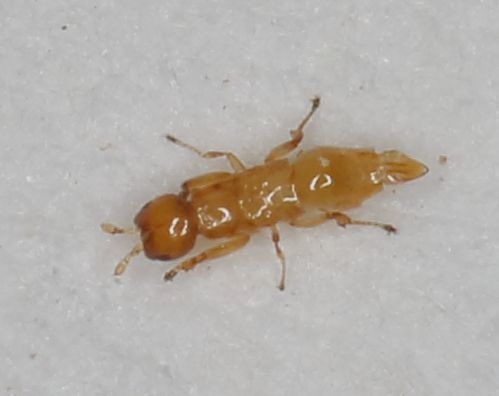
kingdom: Animalia
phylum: Arthropoda
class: Insecta
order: Hymenoptera
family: Agaonidae
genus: Platyscapa
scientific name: Platyscapa soraria
